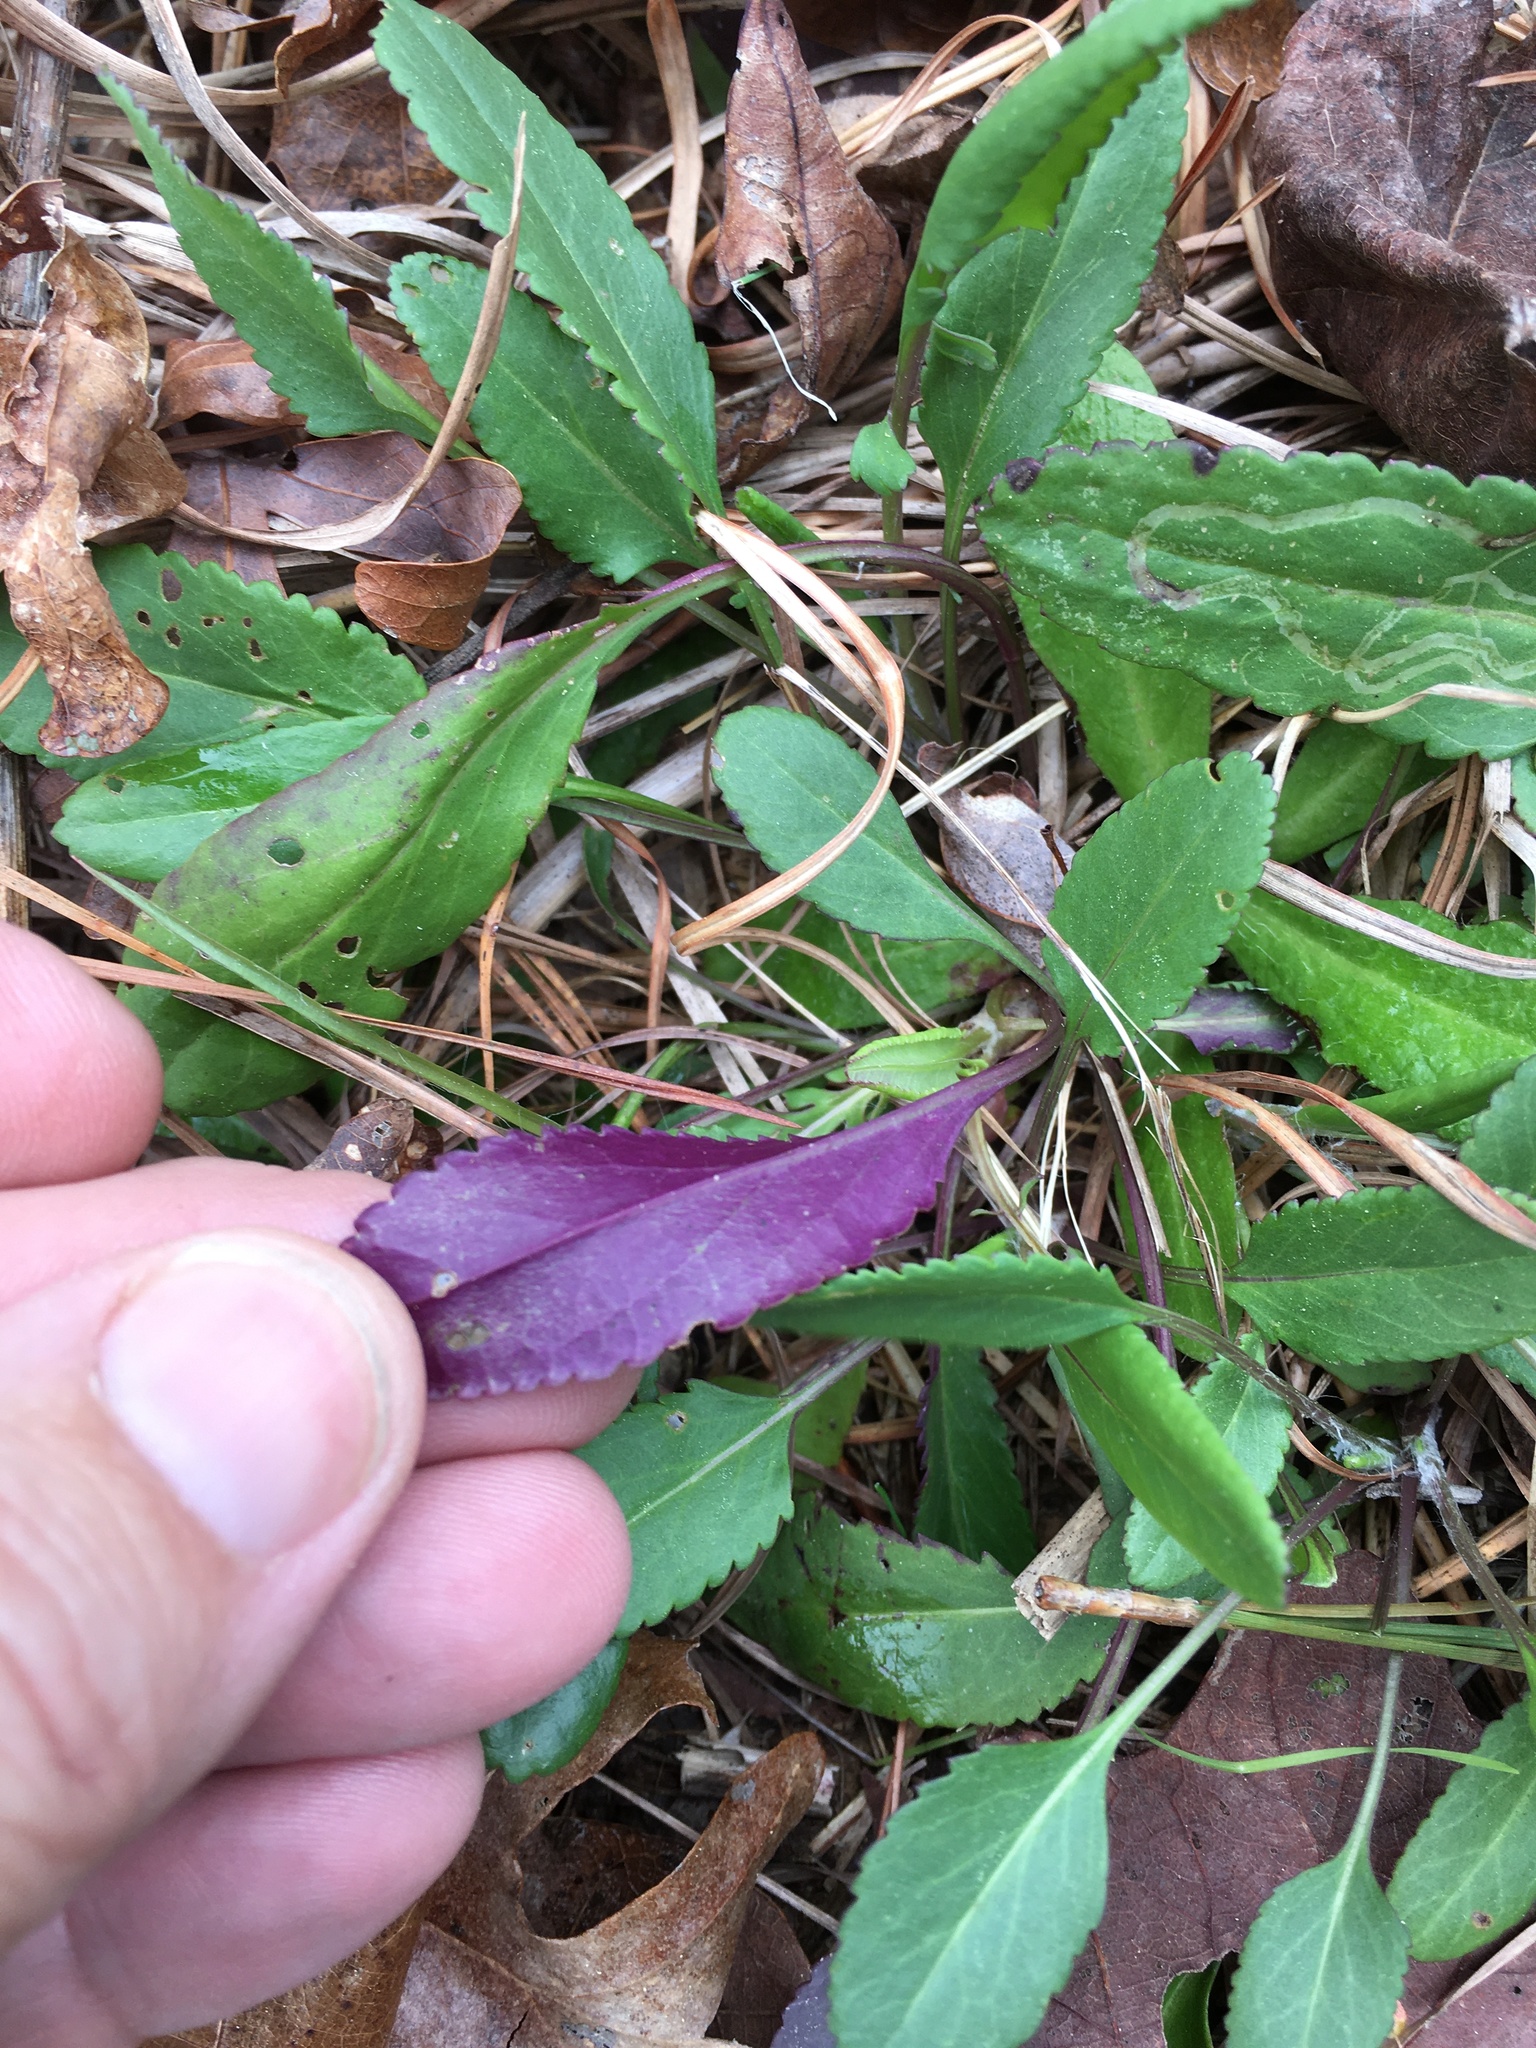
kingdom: Plantae
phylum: Tracheophyta
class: Magnoliopsida
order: Asterales
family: Asteraceae
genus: Packera
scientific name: Packera anonyma
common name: Small ragwort
